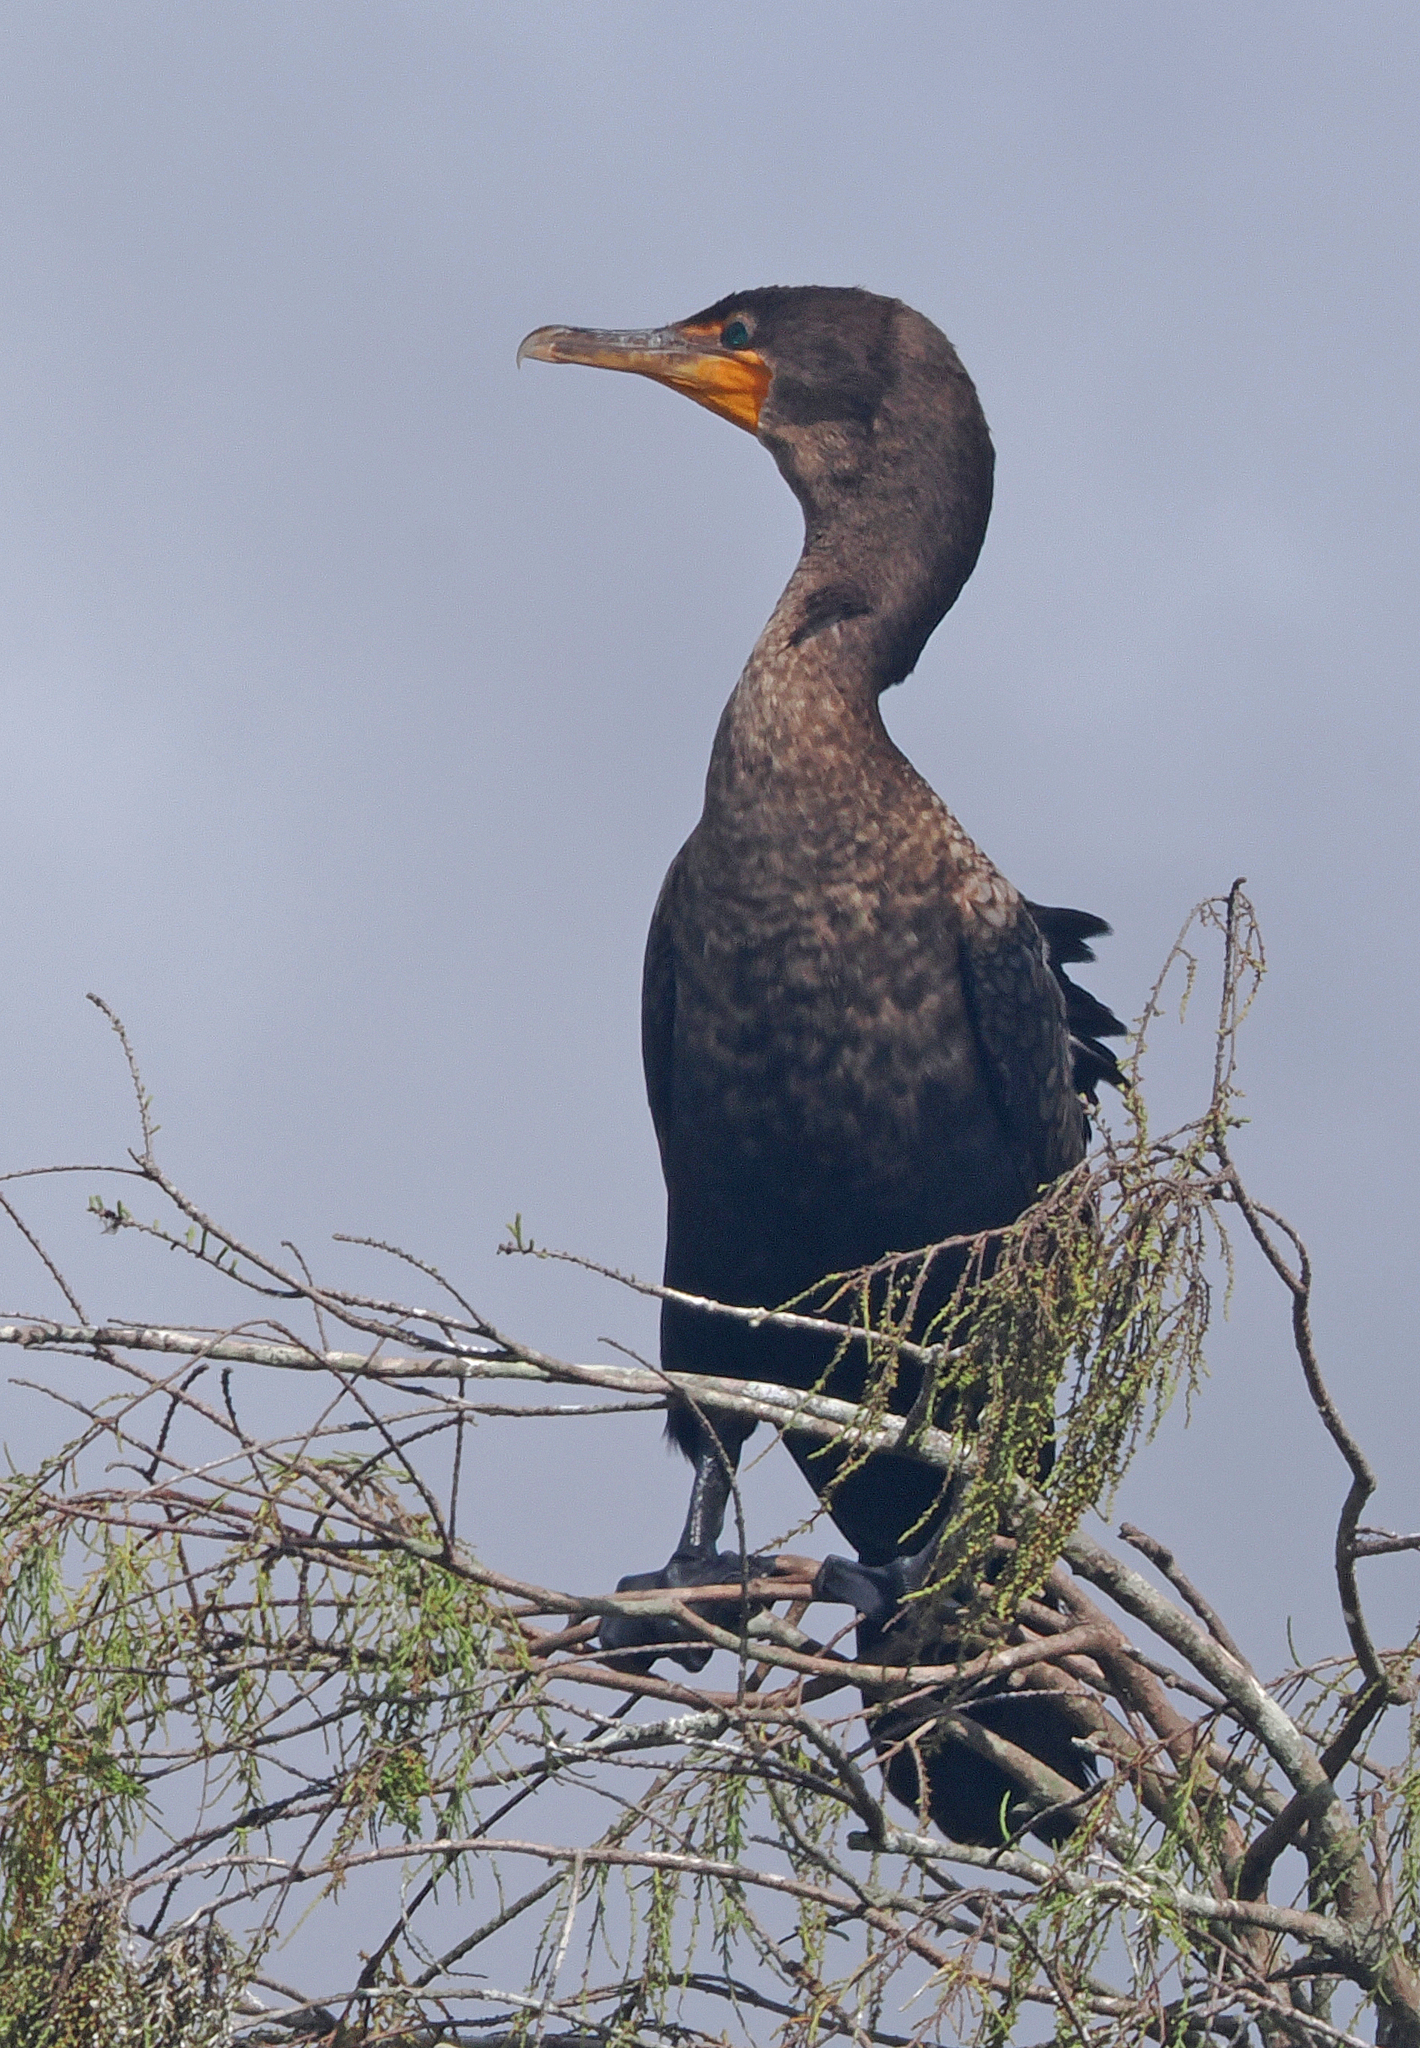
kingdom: Animalia
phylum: Chordata
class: Aves
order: Suliformes
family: Phalacrocoracidae
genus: Phalacrocorax
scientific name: Phalacrocorax auritus
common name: Double-crested cormorant
